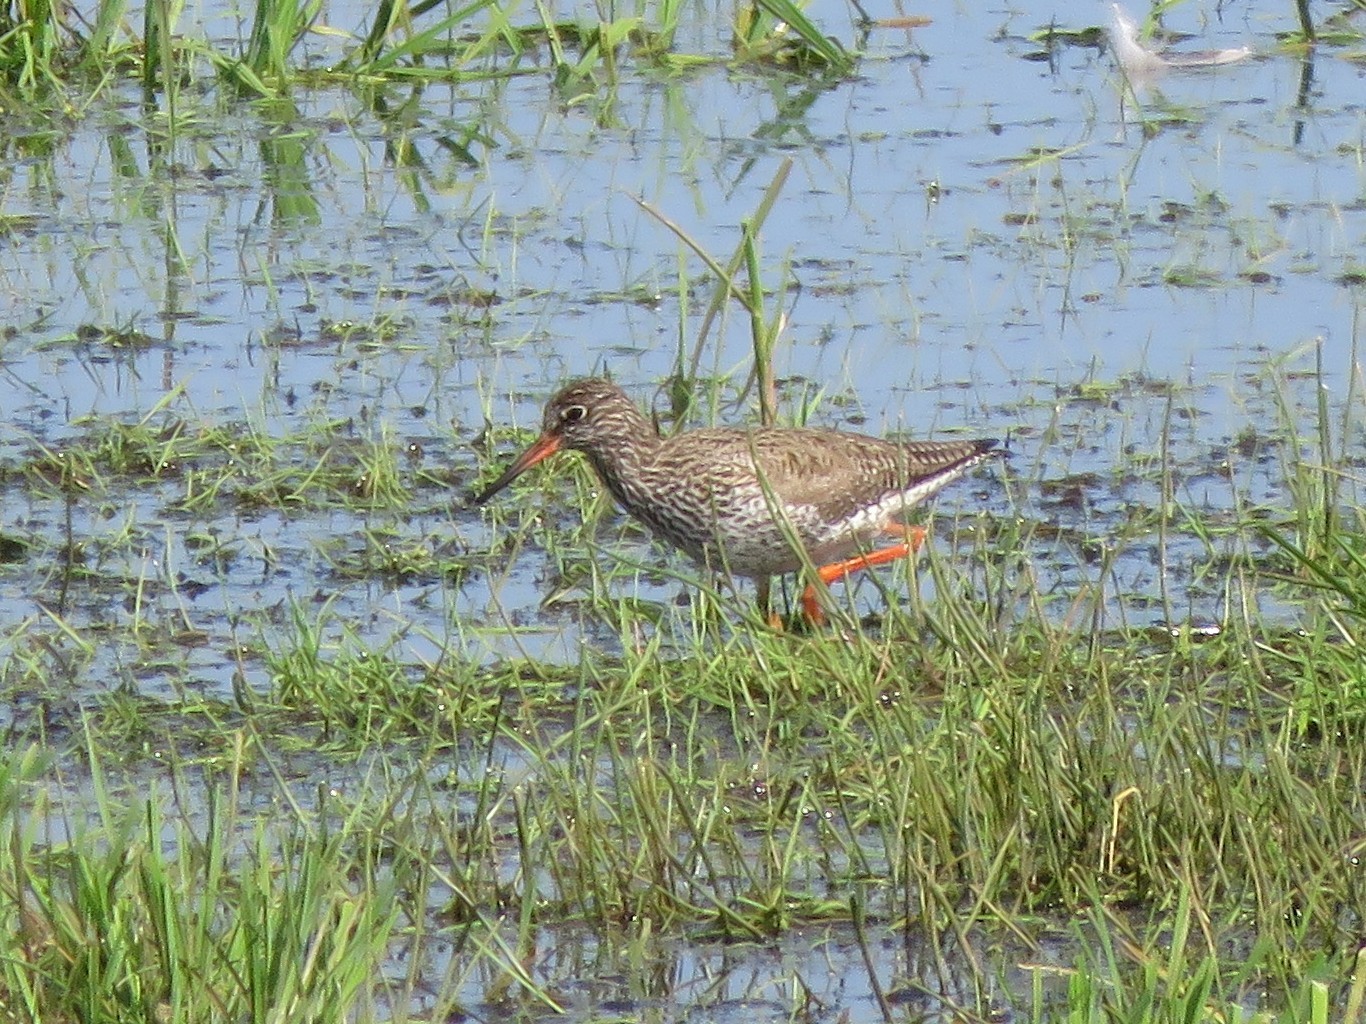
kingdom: Animalia
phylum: Chordata
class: Aves
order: Charadriiformes
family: Scolopacidae
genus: Tringa
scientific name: Tringa totanus
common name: Common redshank
